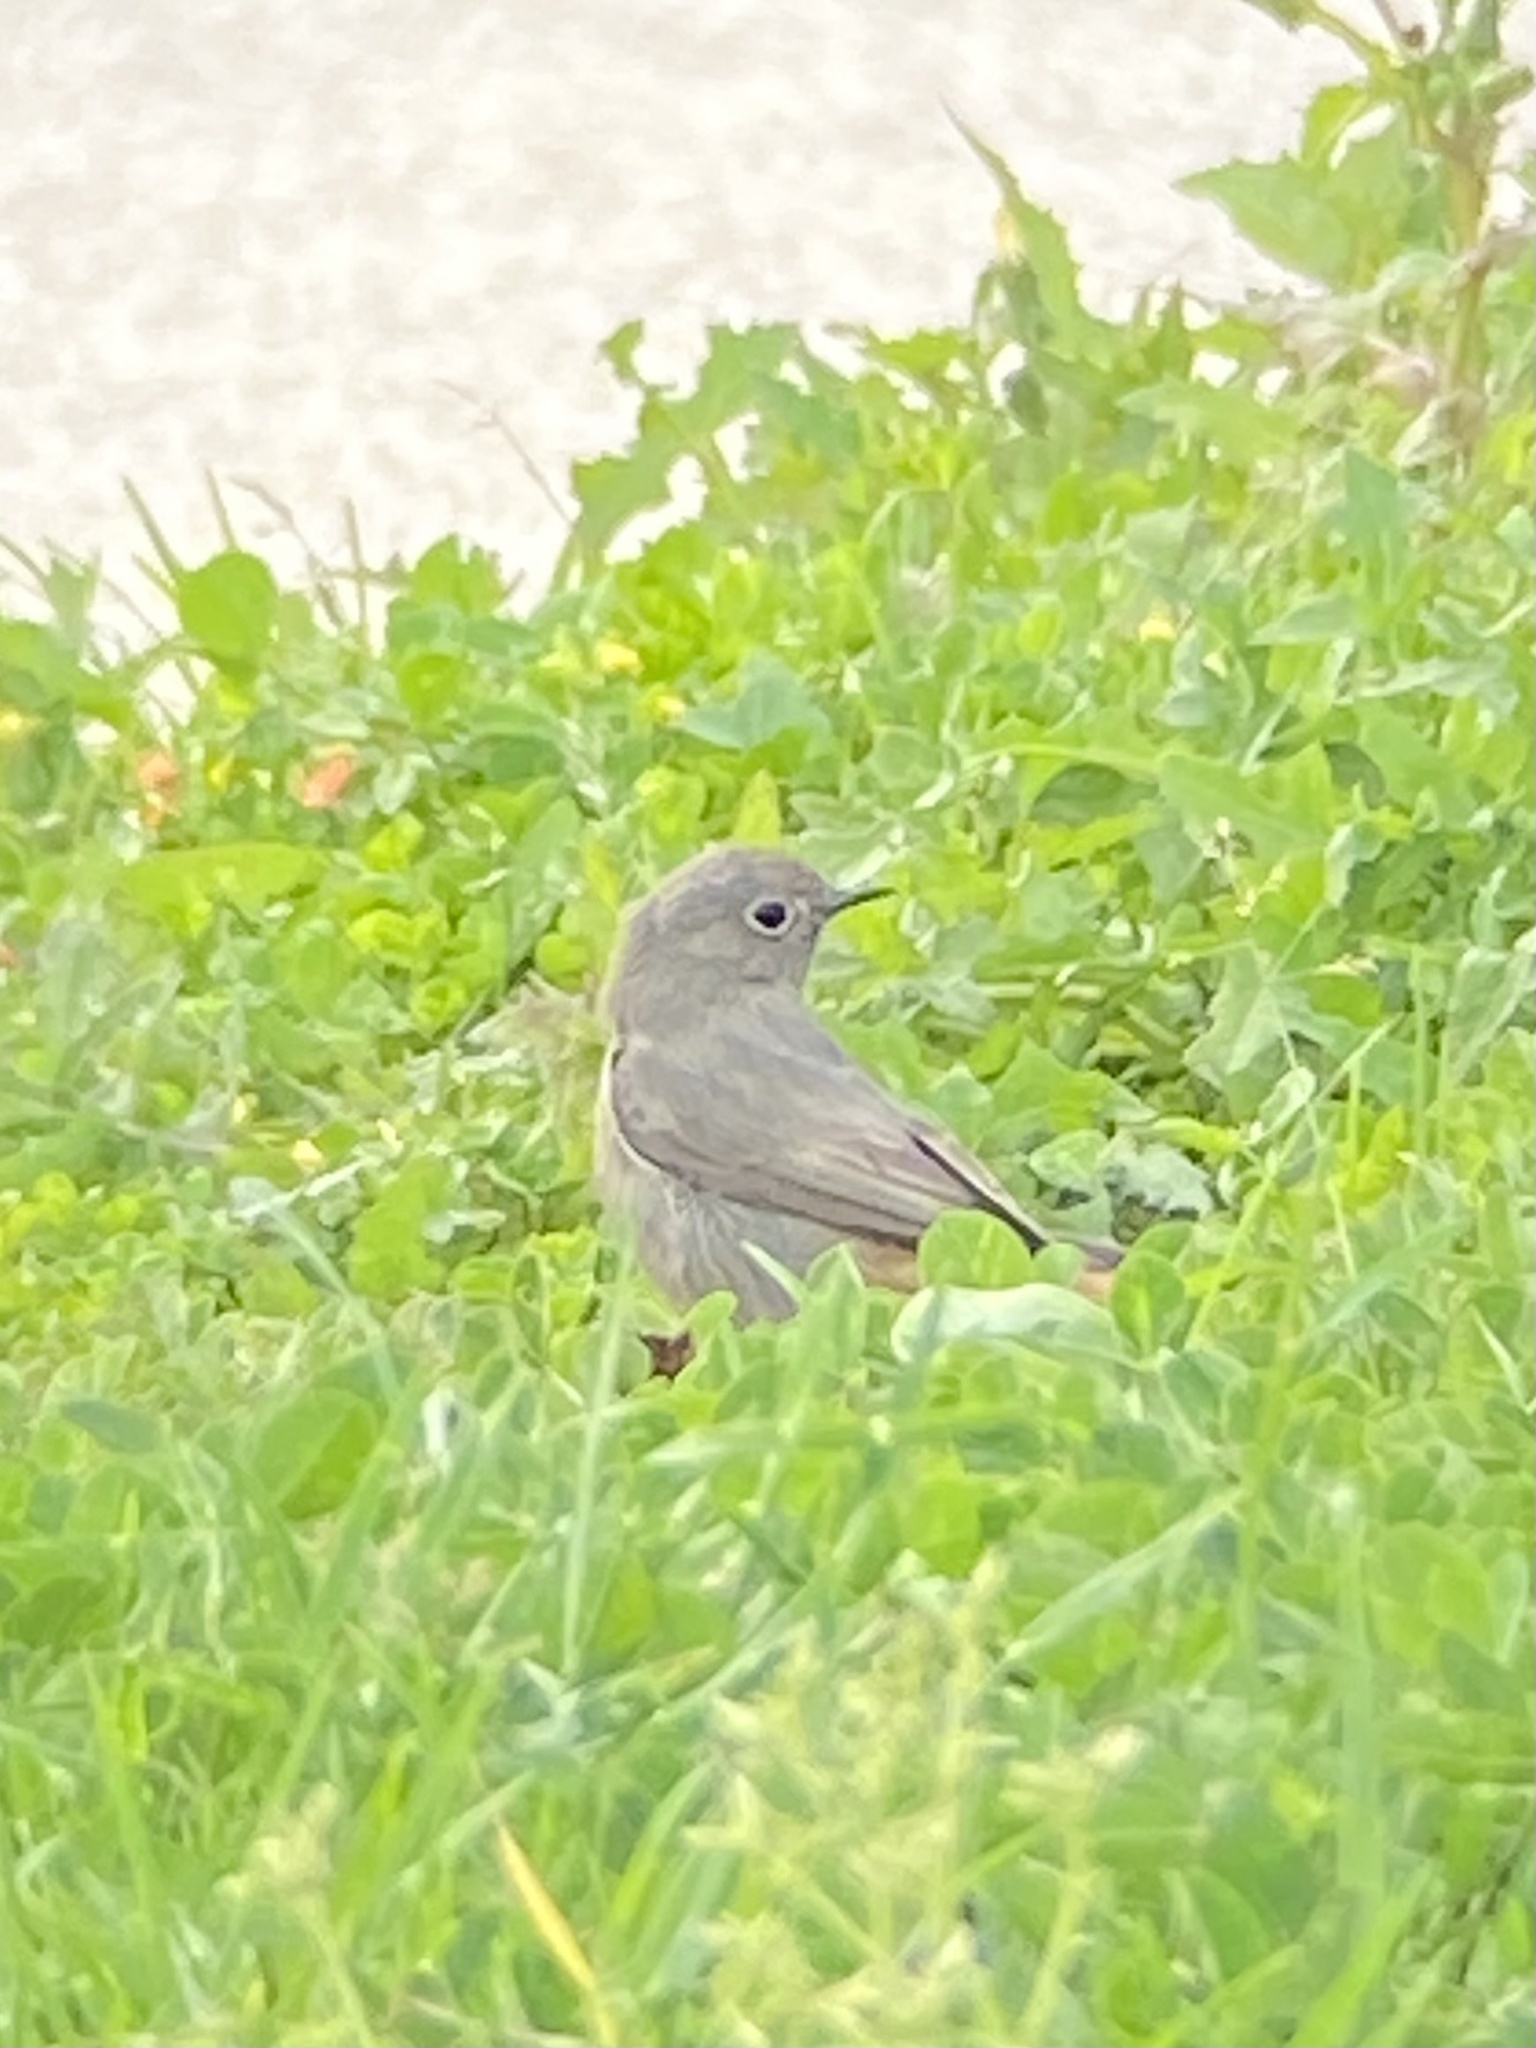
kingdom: Animalia
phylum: Chordata
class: Aves
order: Passeriformes
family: Muscicapidae
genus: Phoenicurus
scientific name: Phoenicurus ochruros
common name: Black redstart
